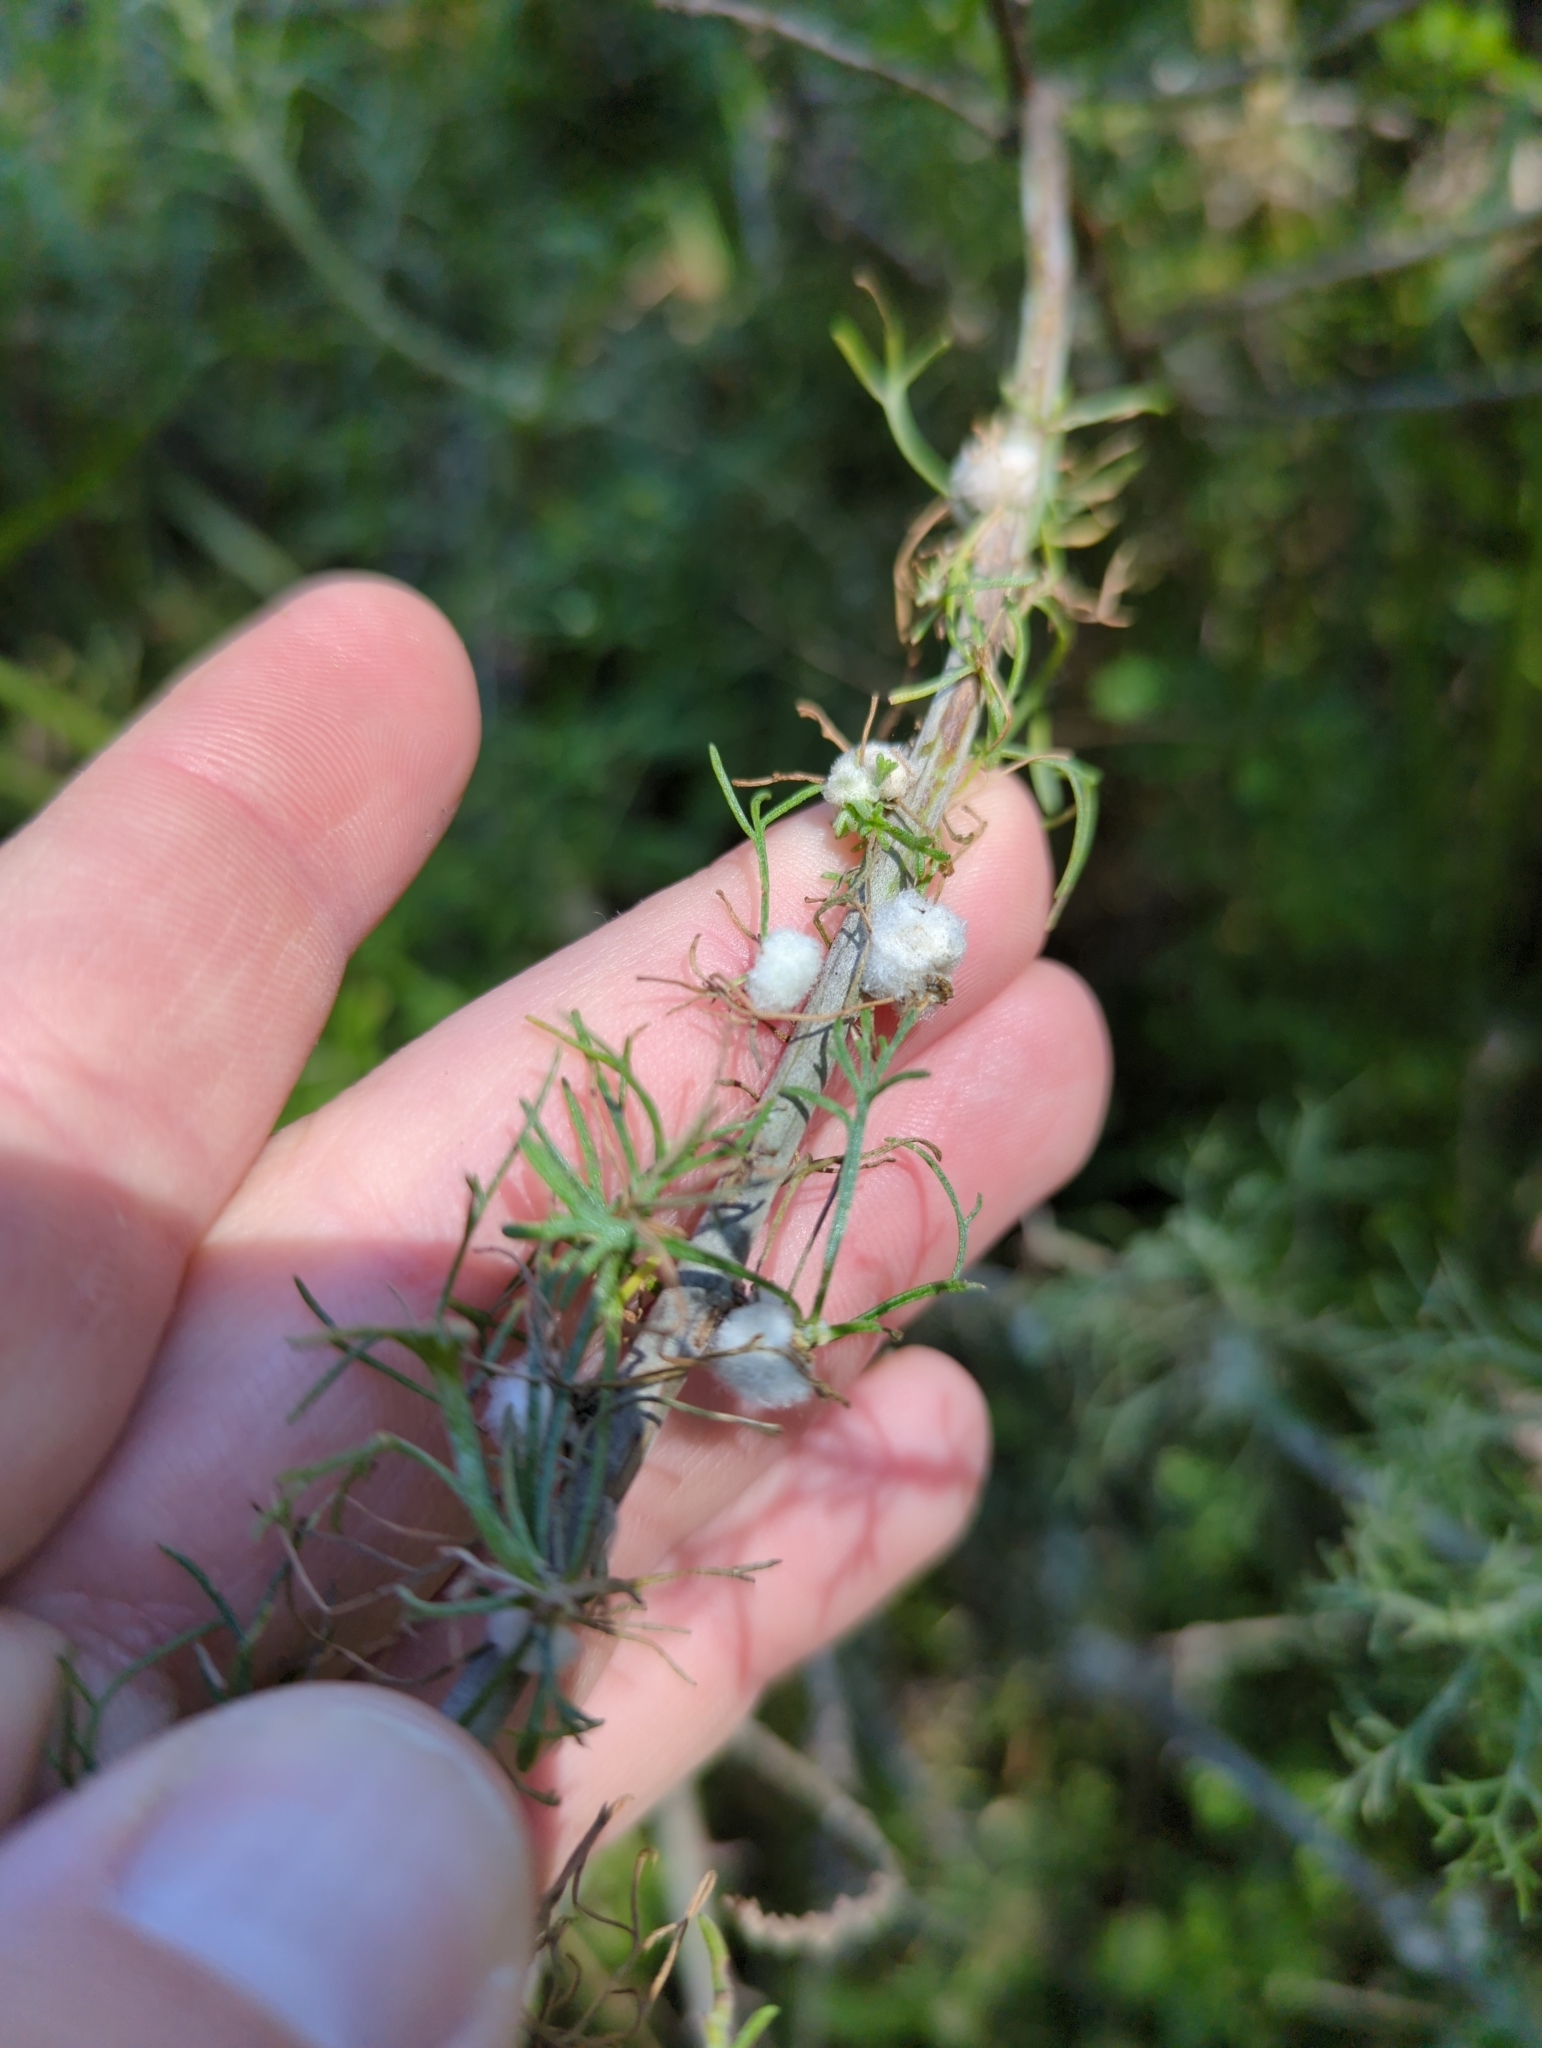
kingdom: Animalia
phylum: Arthropoda
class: Insecta
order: Diptera
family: Cecidomyiidae
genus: Rhopalomyia
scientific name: Rhopalomyia floccosa
